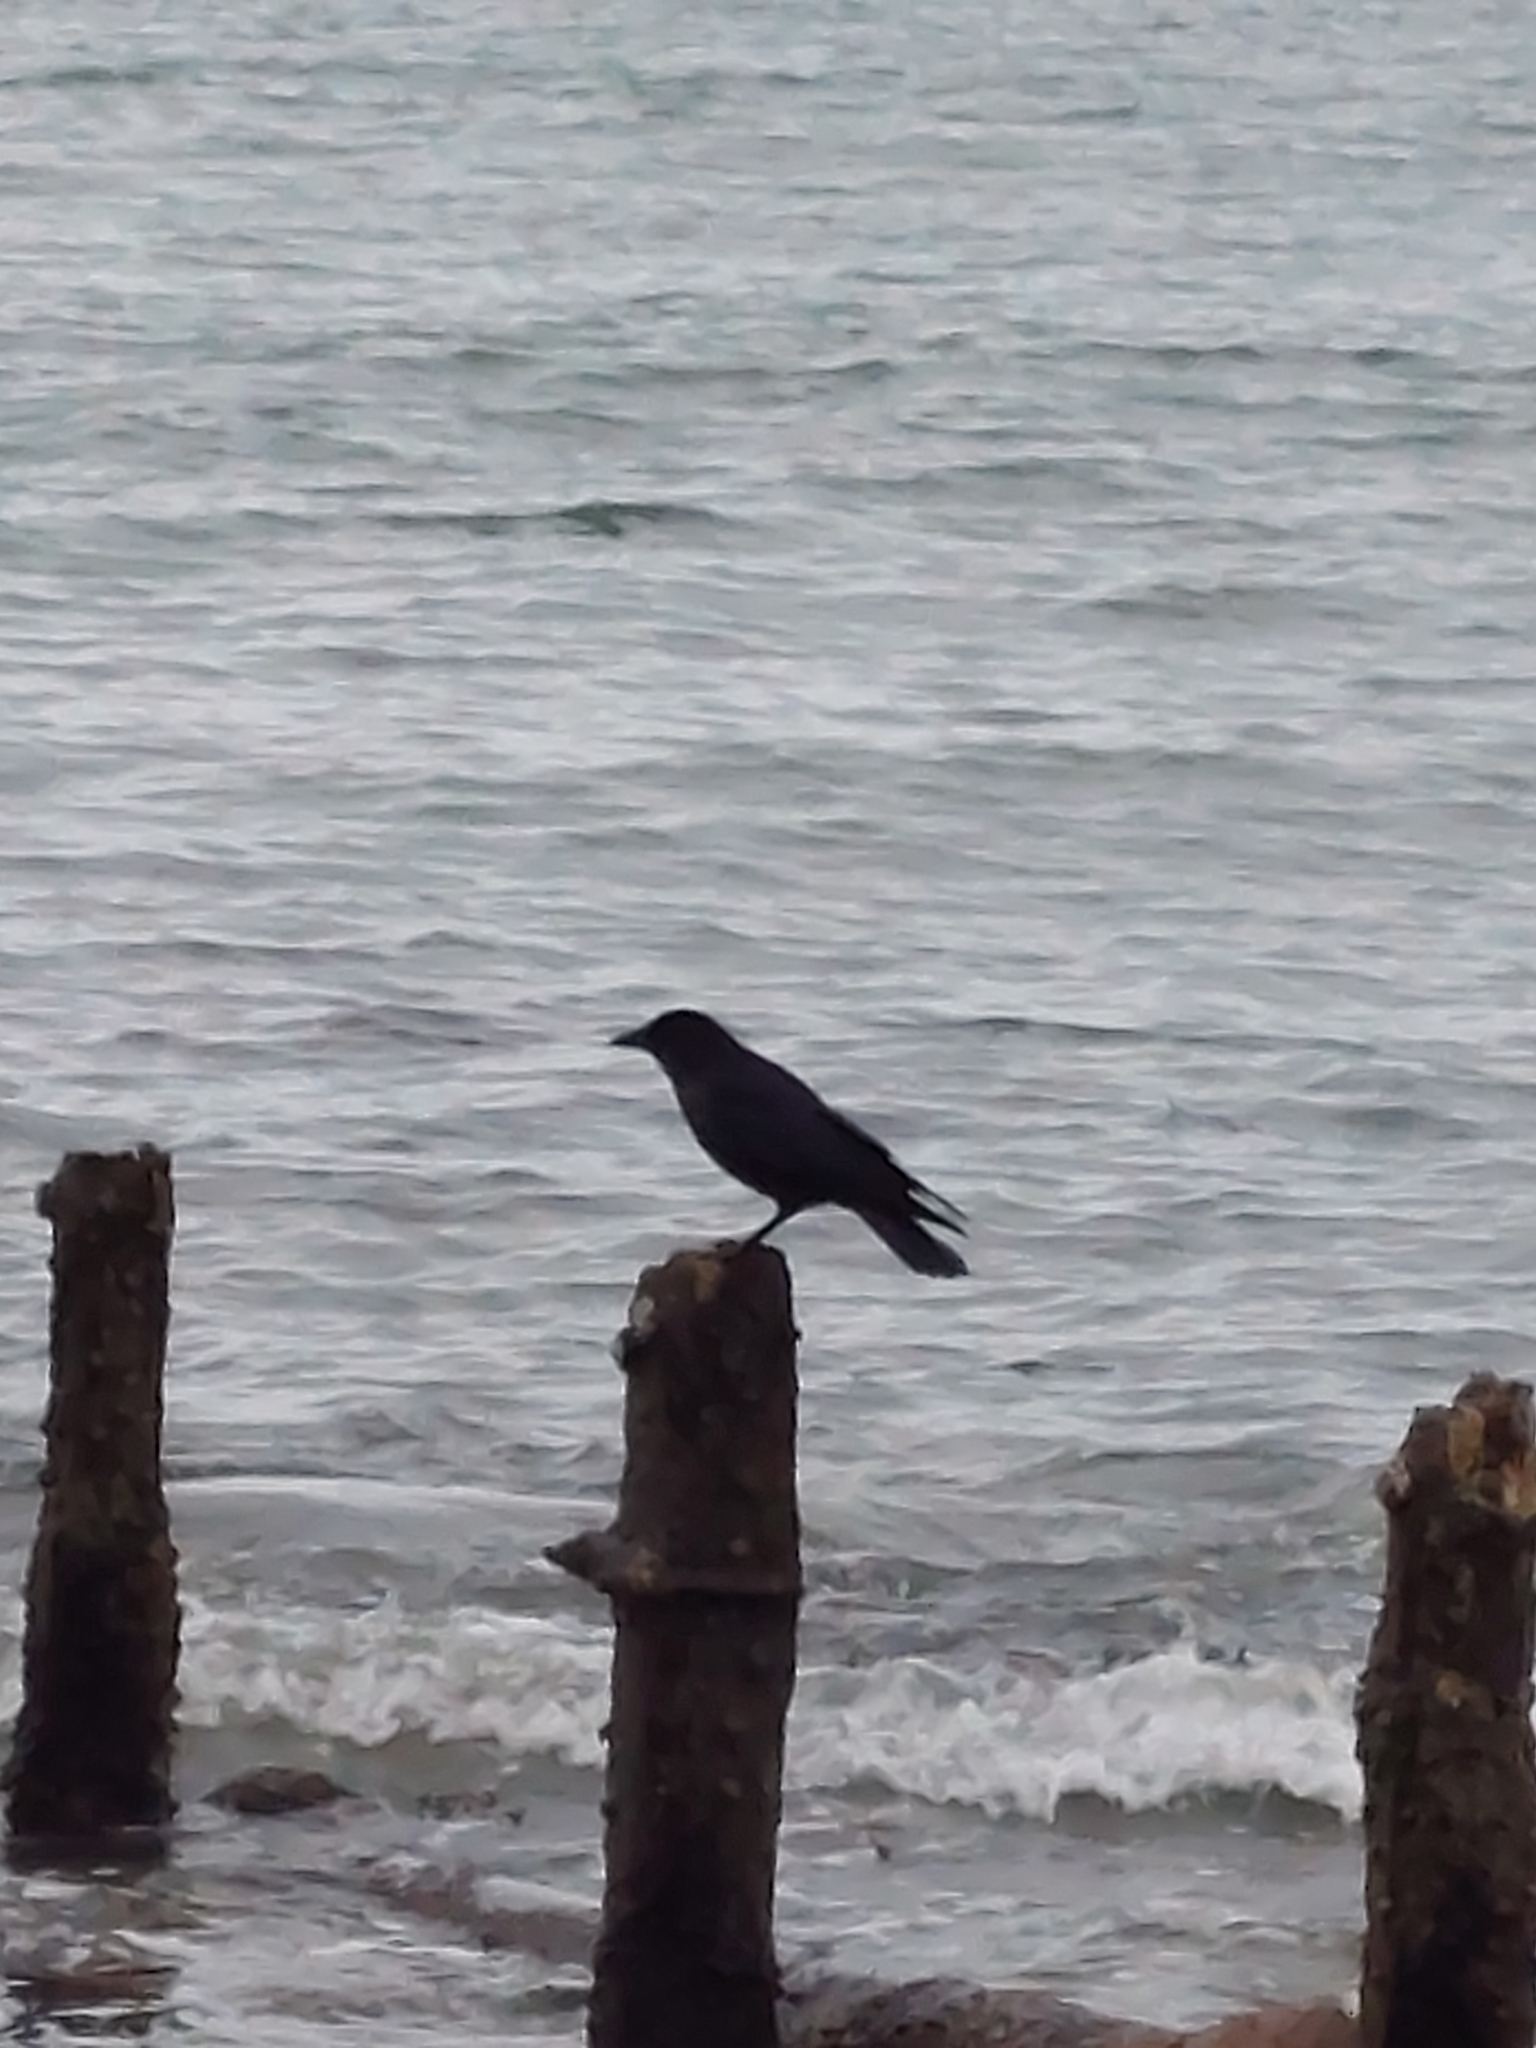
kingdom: Animalia
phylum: Chordata
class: Aves
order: Passeriformes
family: Corvidae
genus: Corvus
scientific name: Corvus corone
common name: Carrion crow
